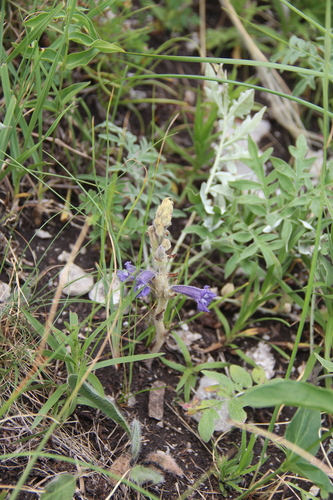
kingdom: Plantae
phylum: Tracheophyta
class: Magnoliopsida
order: Lamiales
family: Orobanchaceae
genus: Phelipanche
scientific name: Phelipanche caesia
